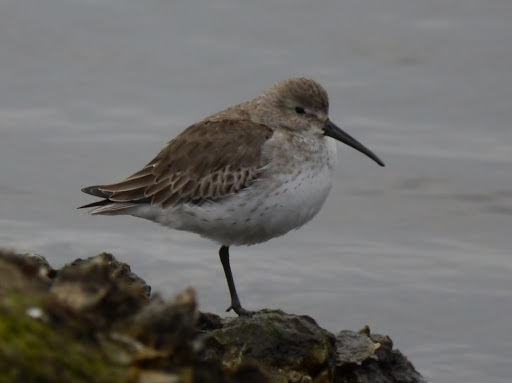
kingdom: Animalia
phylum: Chordata
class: Aves
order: Charadriiformes
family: Scolopacidae
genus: Calidris
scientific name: Calidris alpina
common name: Dunlin
